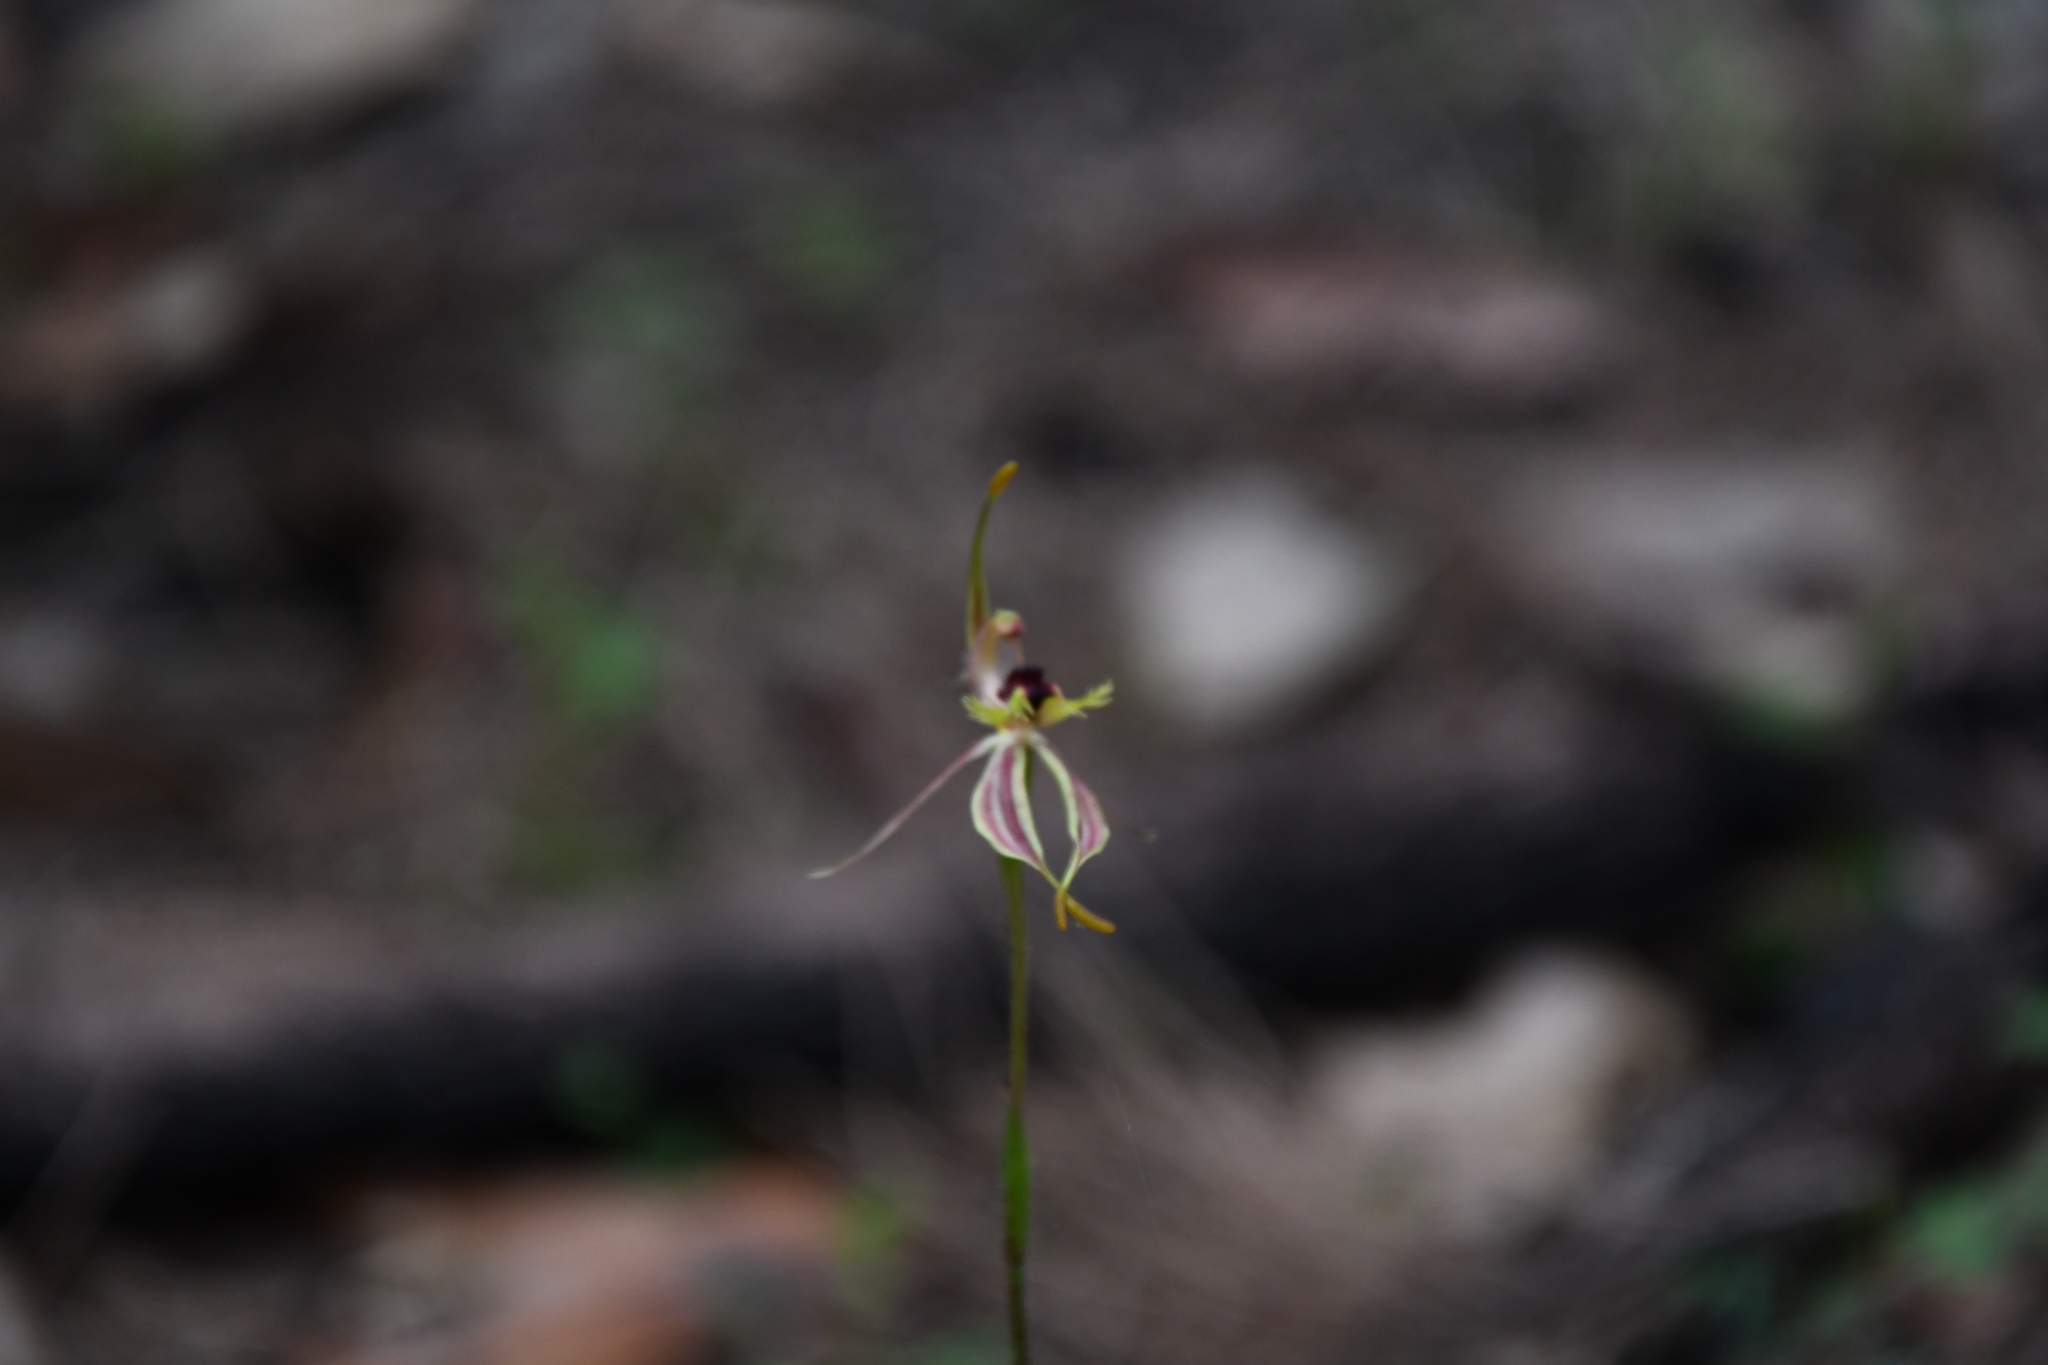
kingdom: Plantae
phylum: Tracheophyta
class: Liliopsida
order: Asparagales
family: Orchidaceae
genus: Caladenia
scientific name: Caladenia plicata
